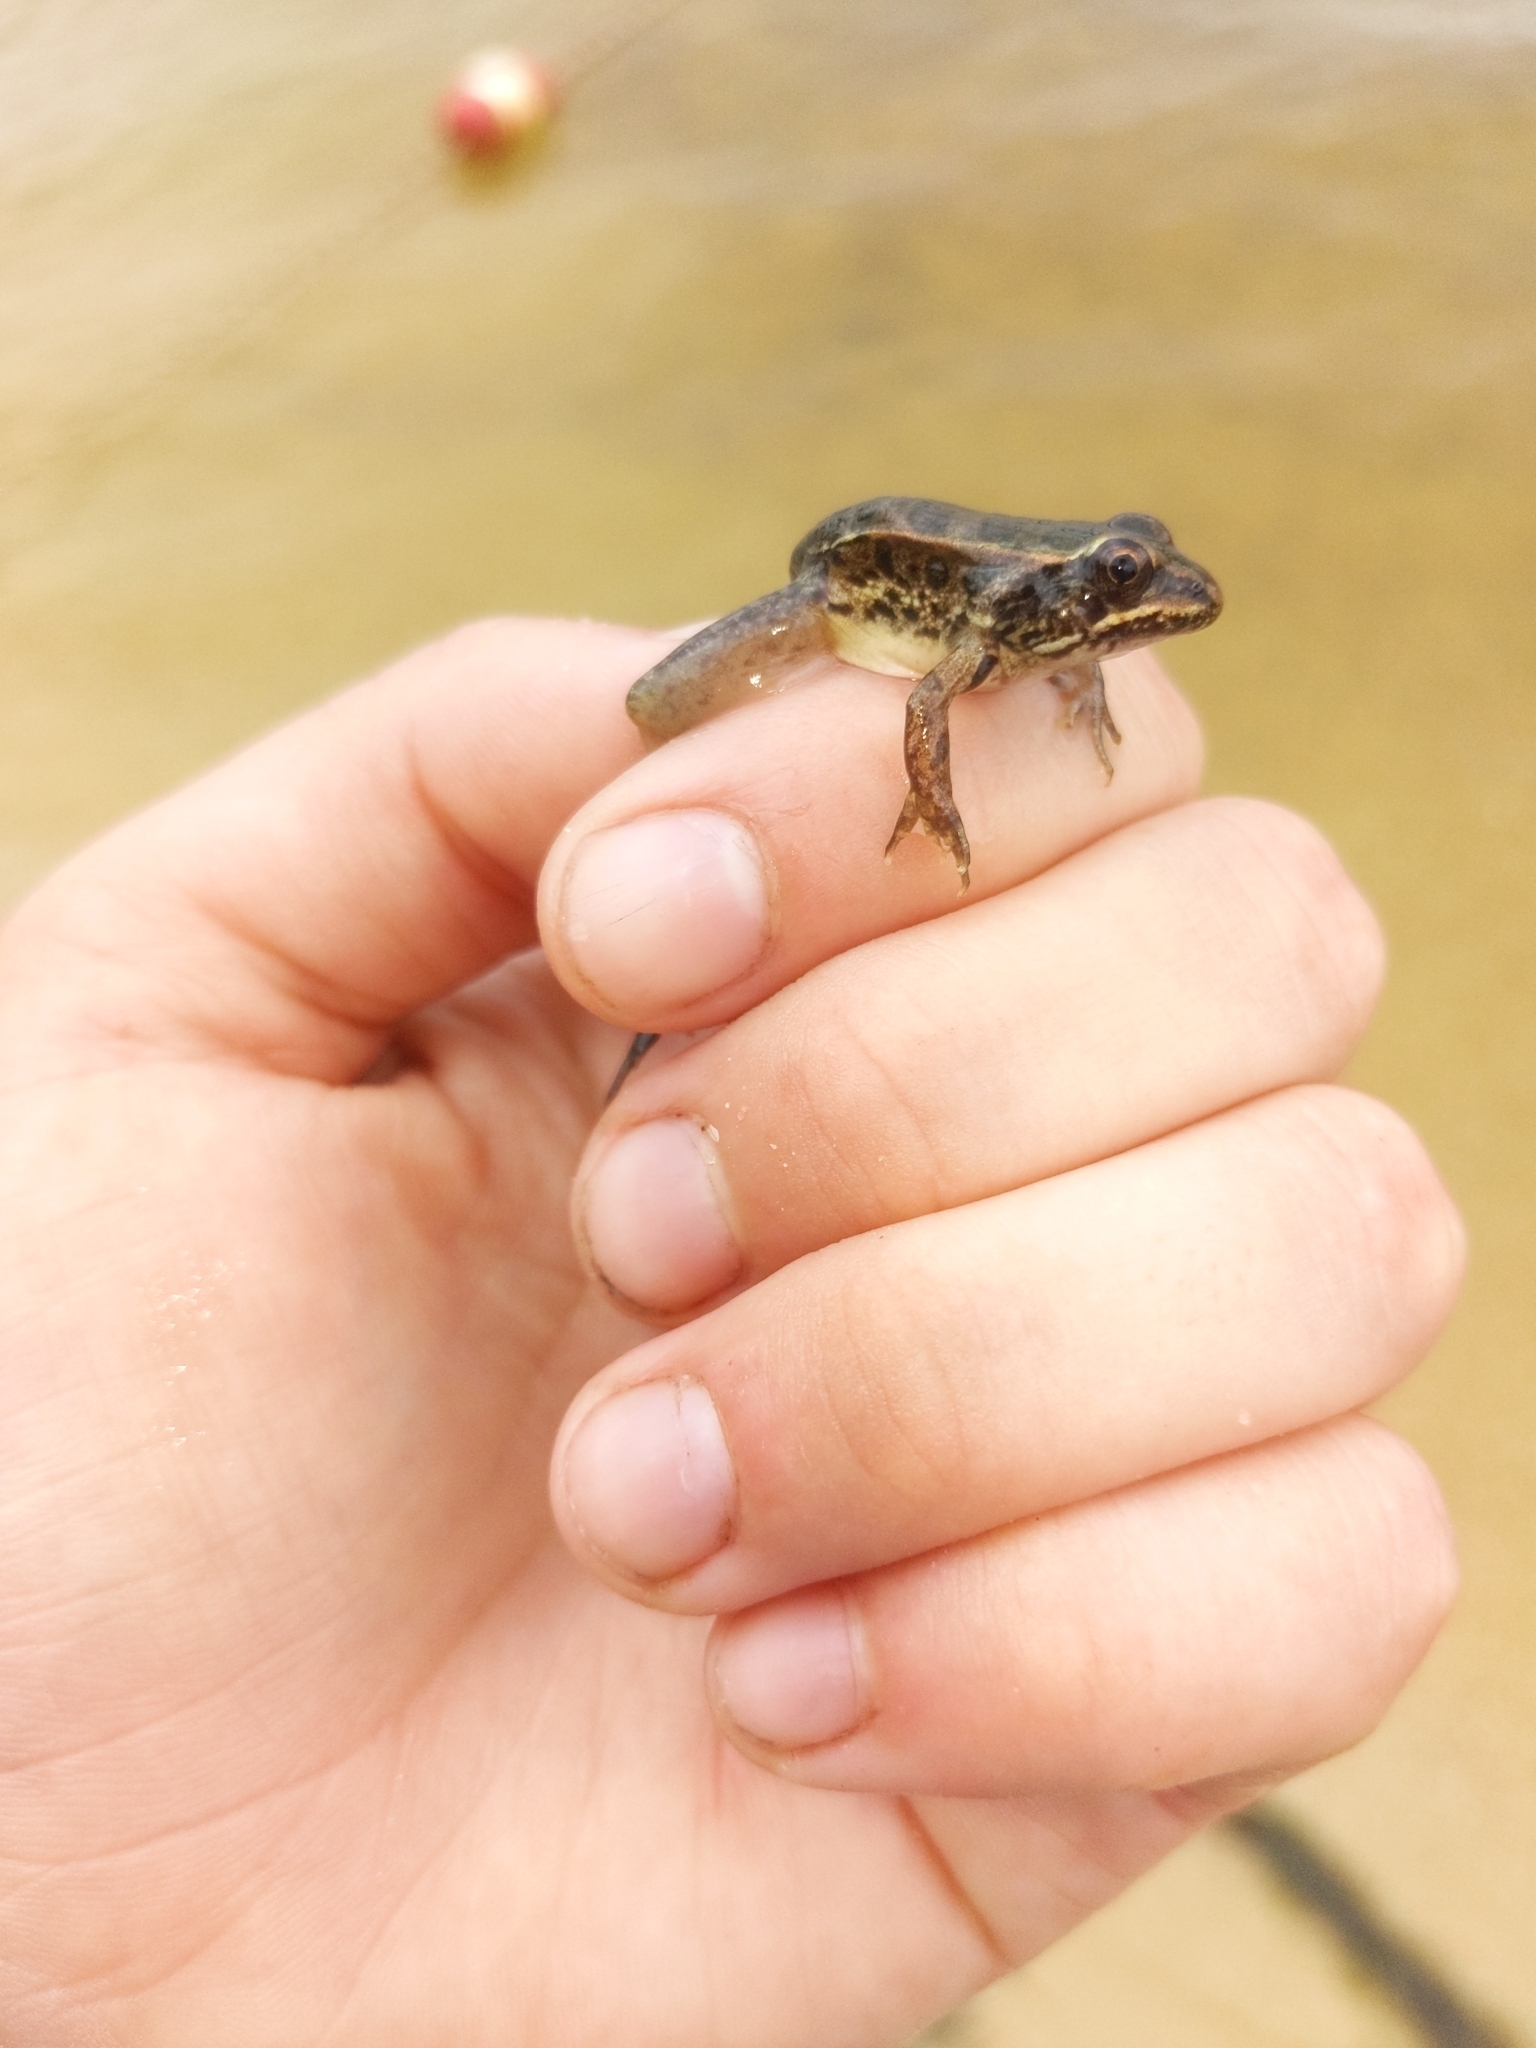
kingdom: Animalia
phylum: Chordata
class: Amphibia
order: Anura
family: Ranidae
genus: Lithobates
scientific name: Lithobates palustris
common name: Pickerel frog
